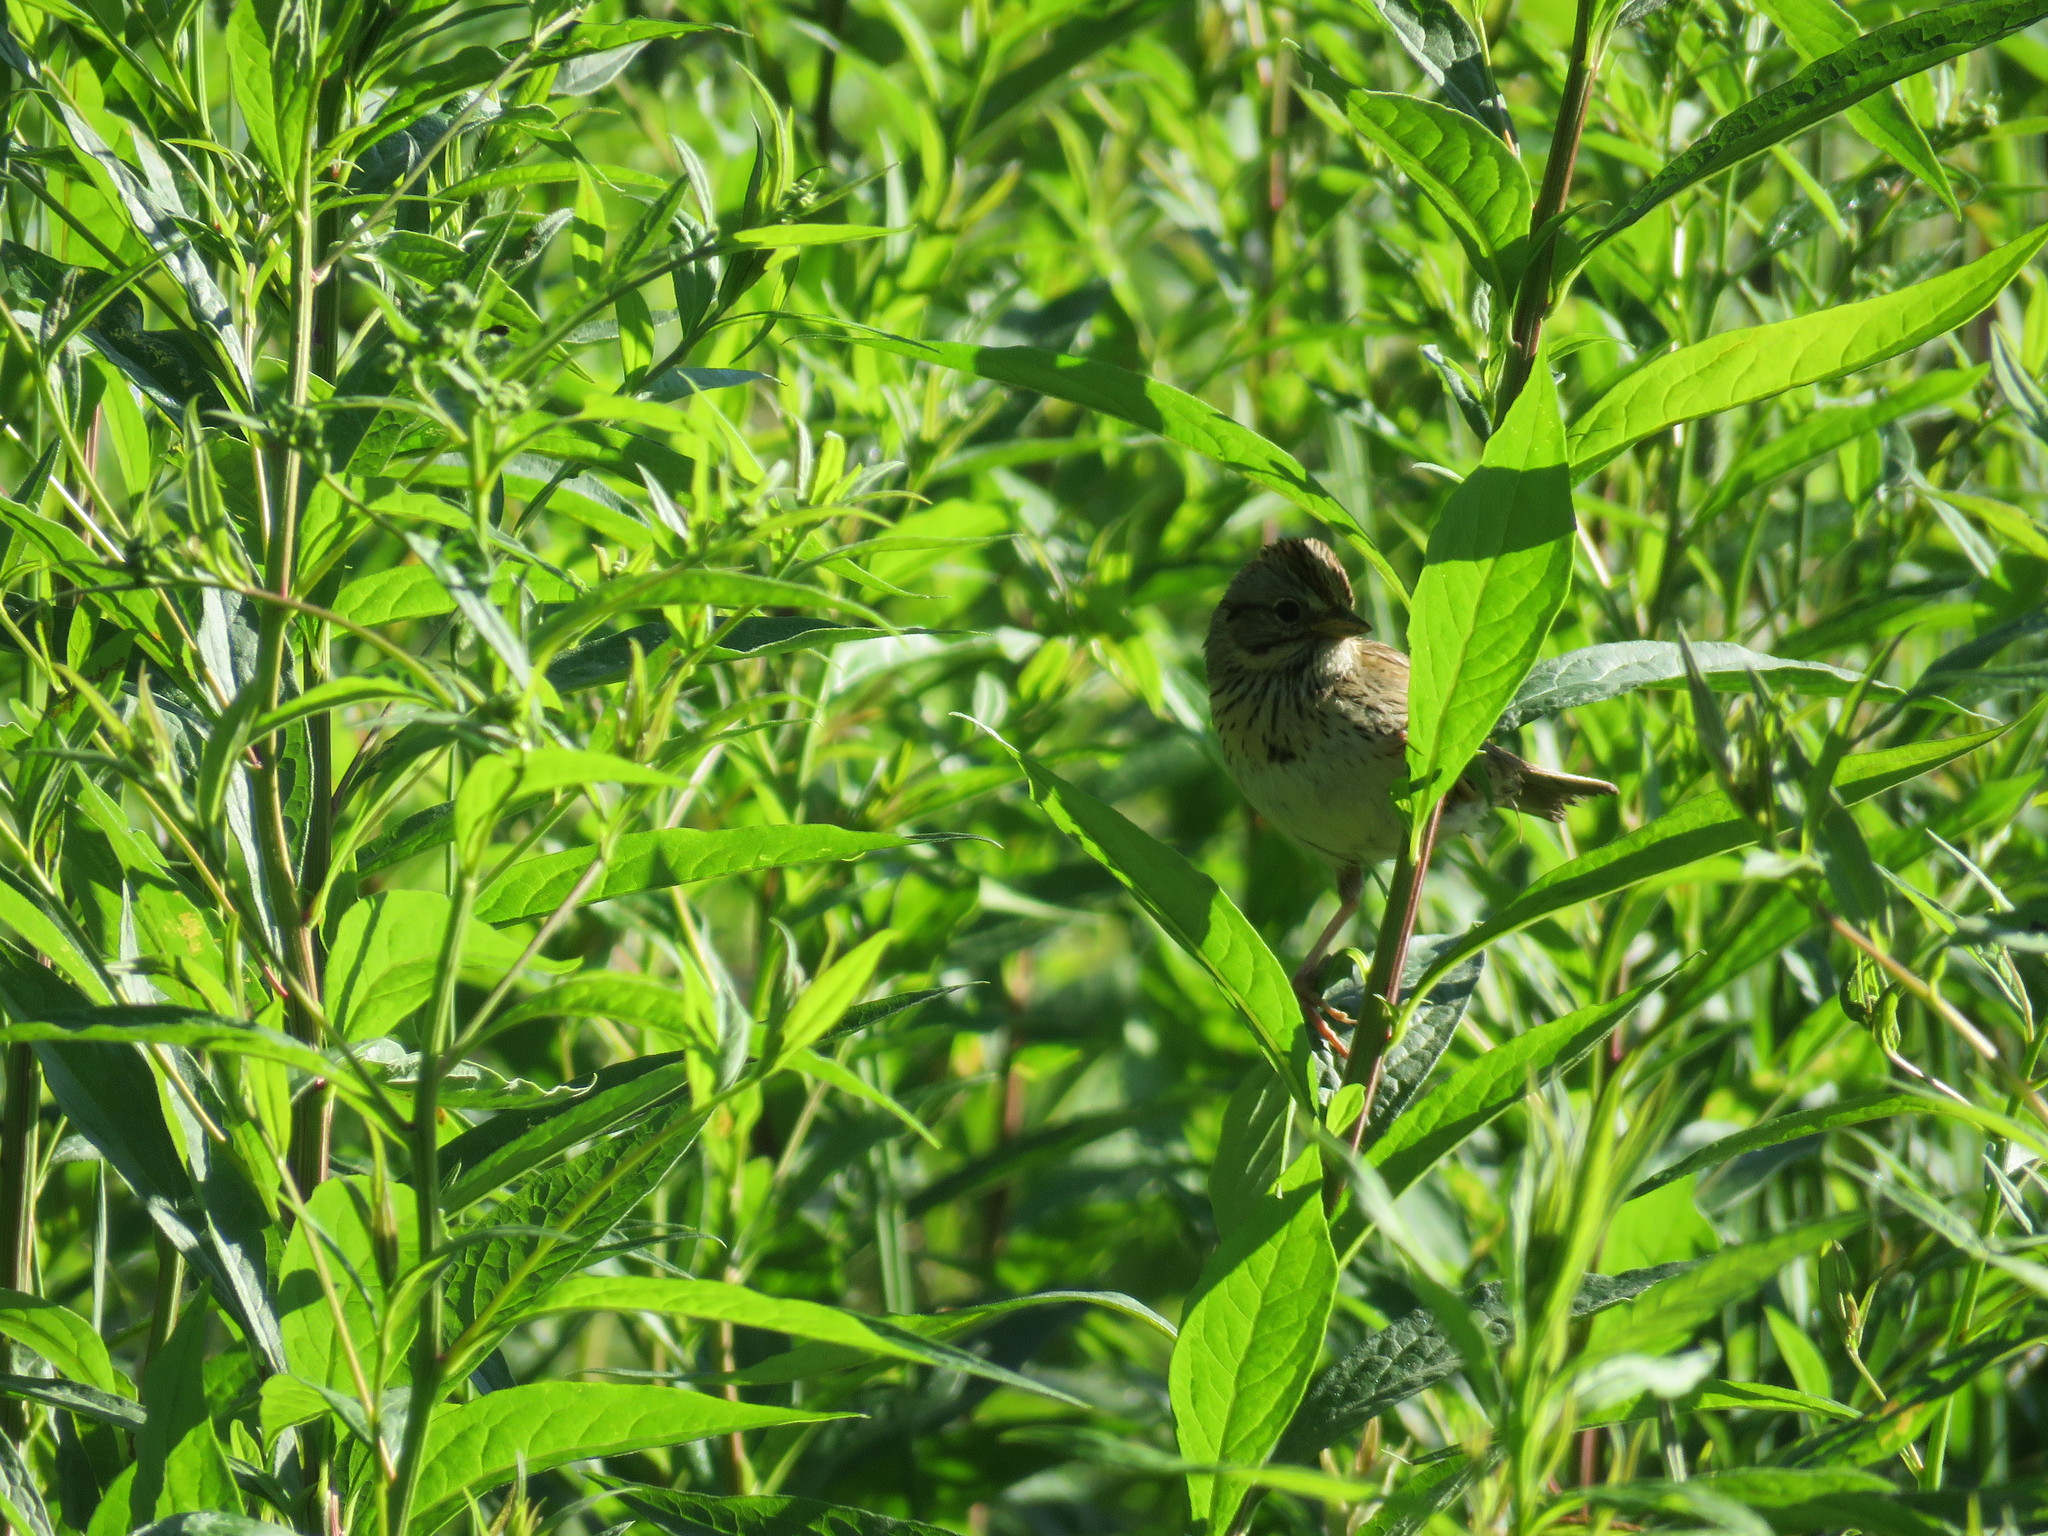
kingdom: Animalia
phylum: Chordata
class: Aves
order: Passeriformes
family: Passerellidae
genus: Melospiza
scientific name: Melospiza lincolnii
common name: Lincoln's sparrow
